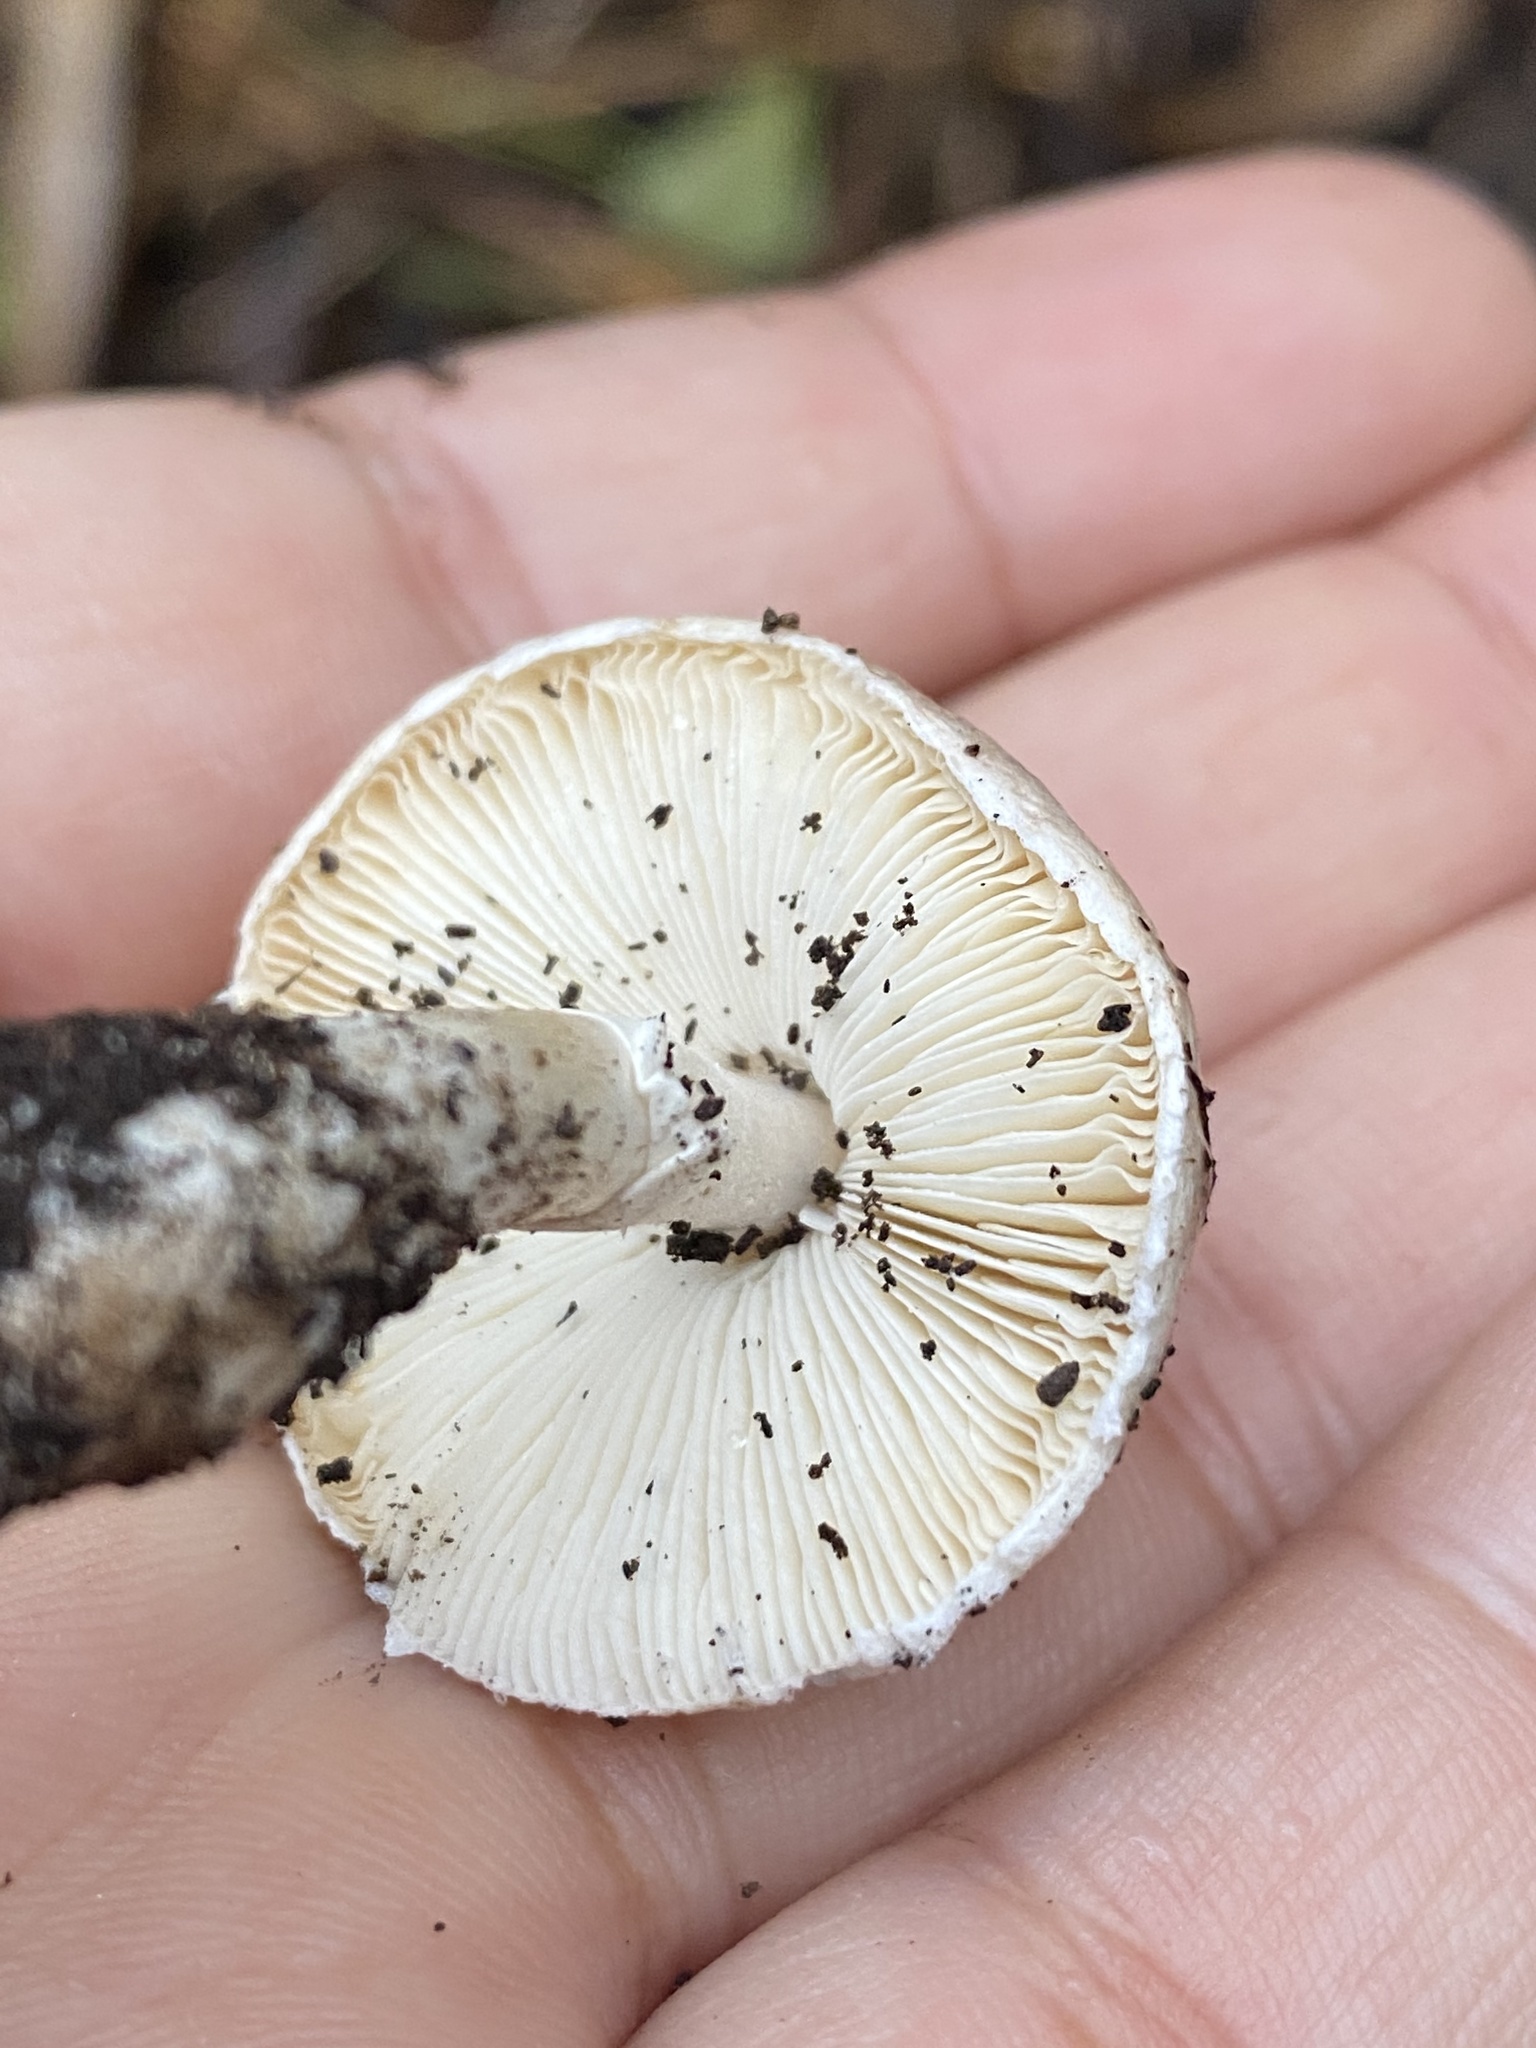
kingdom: Fungi
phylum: Basidiomycota
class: Agaricomycetes
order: Agaricales
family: Amanitaceae
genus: Amanita
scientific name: Amanita ocreata
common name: Western destroying angel
